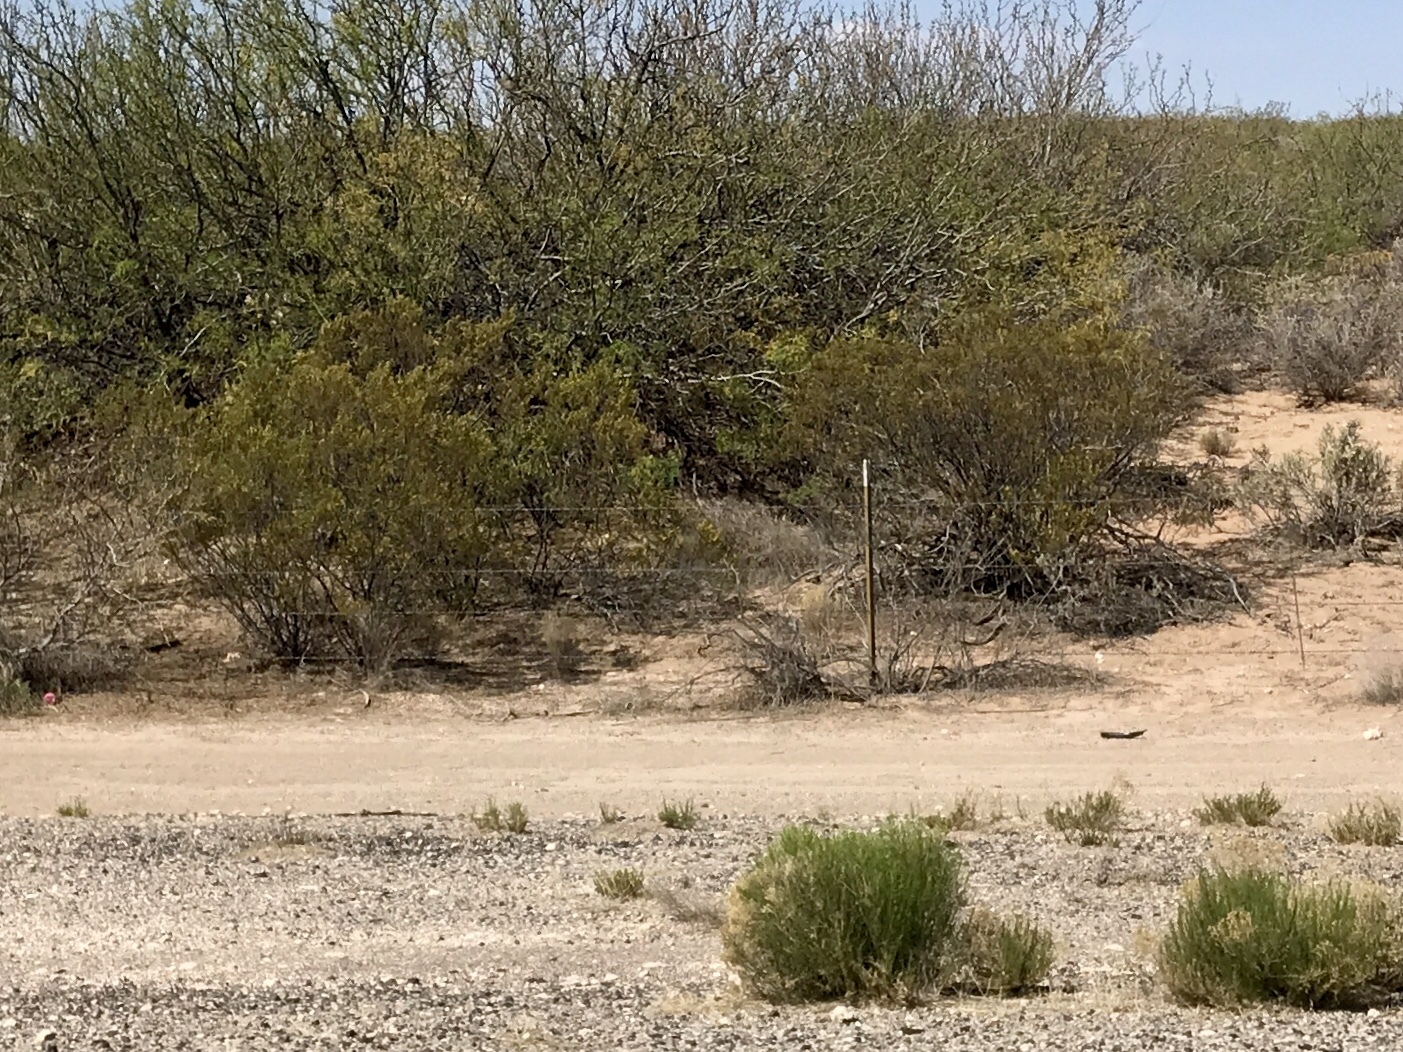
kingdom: Plantae
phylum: Tracheophyta
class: Magnoliopsida
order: Zygophyllales
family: Zygophyllaceae
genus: Larrea
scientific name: Larrea tridentata
